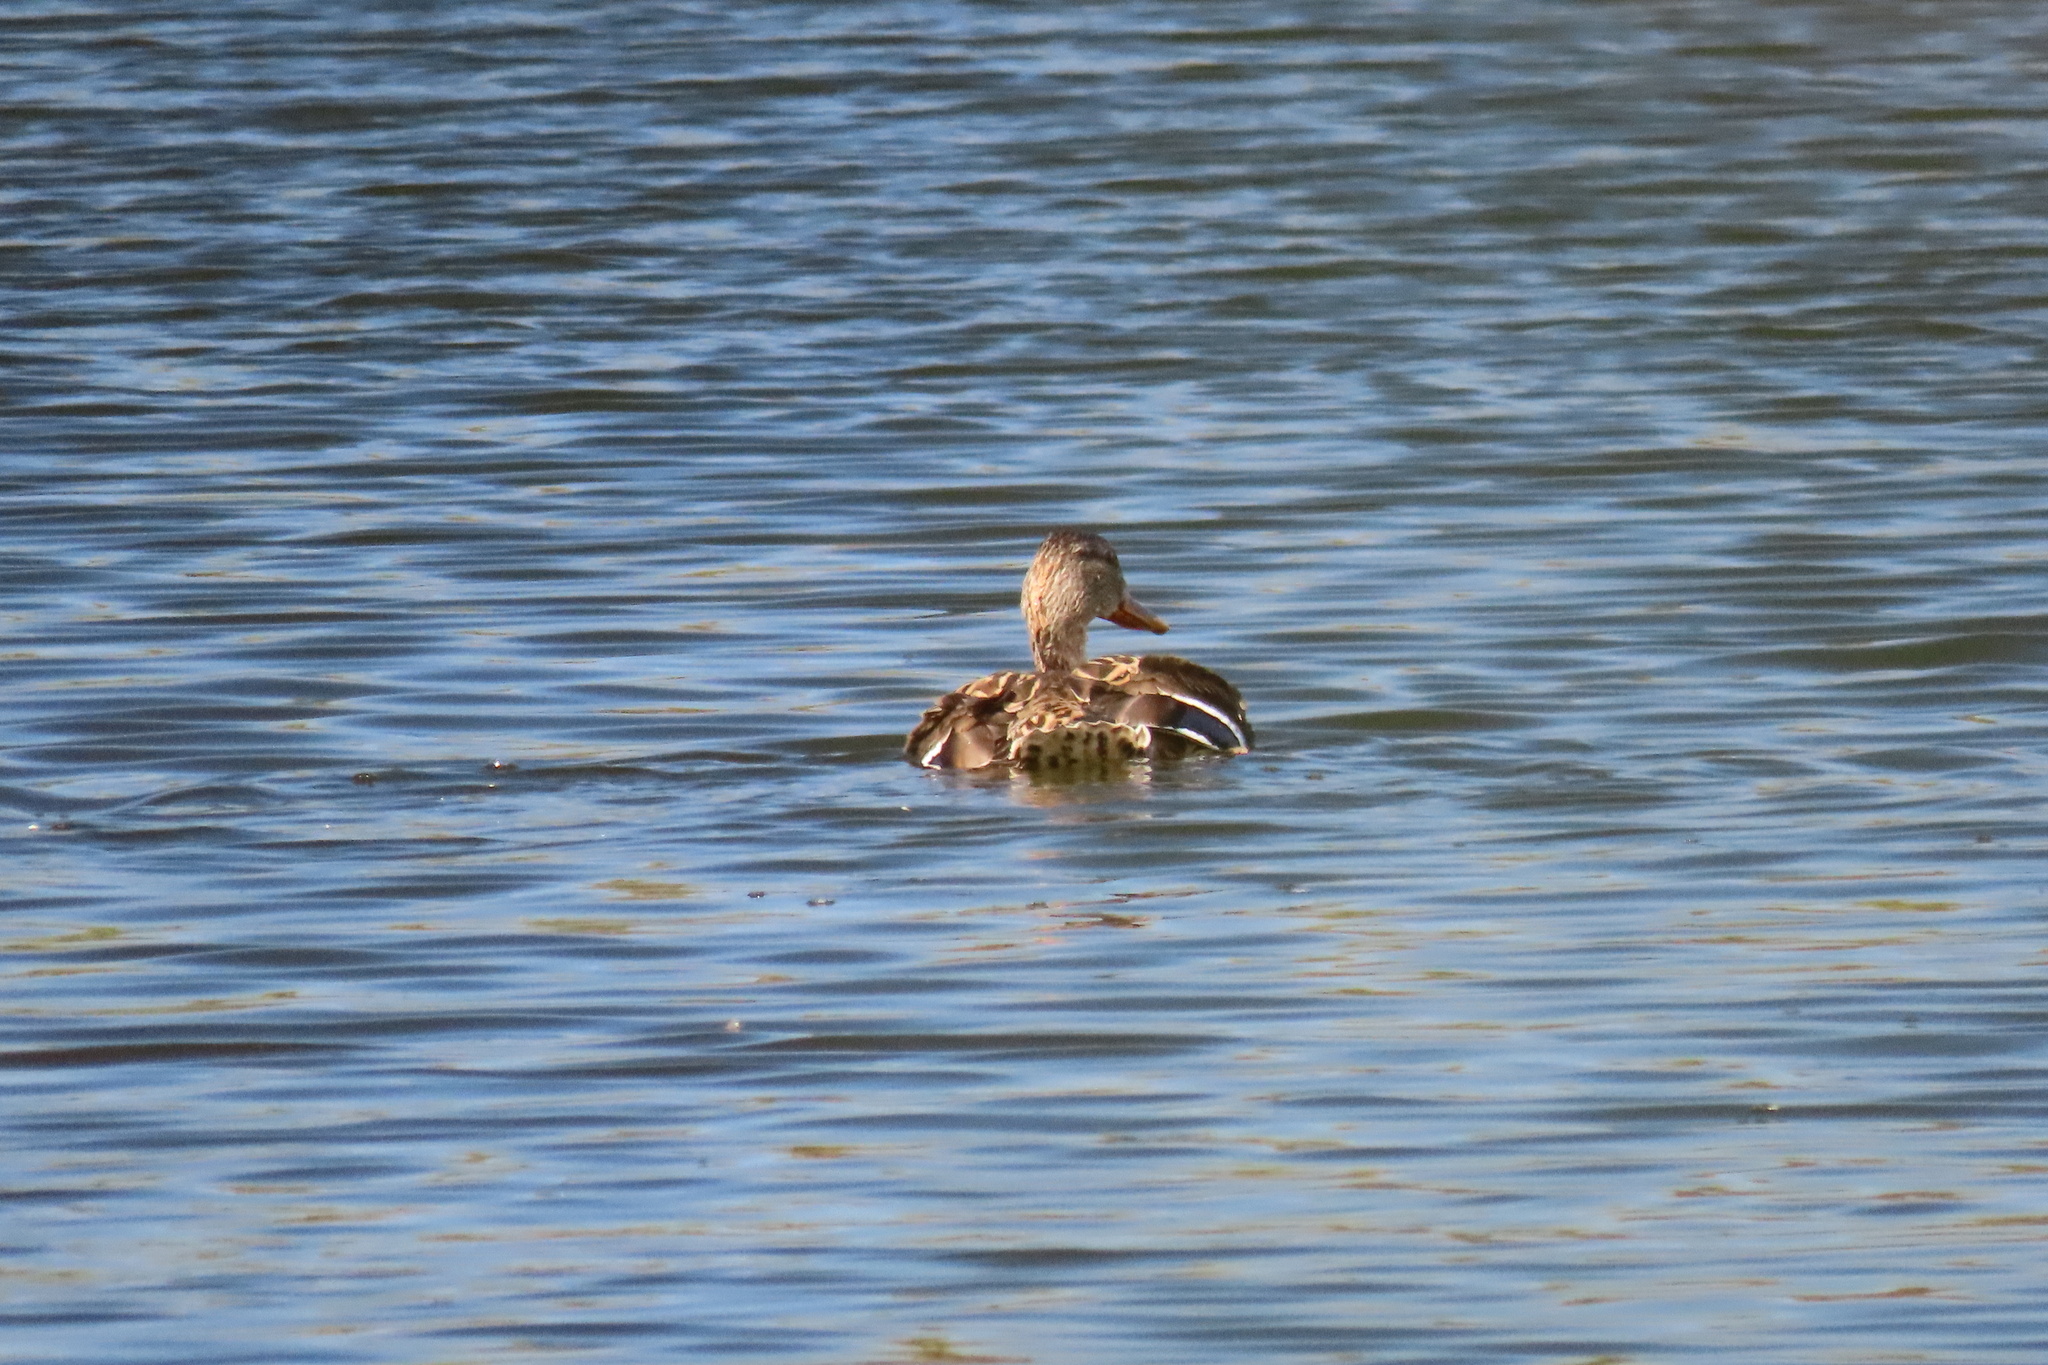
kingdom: Animalia
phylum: Chordata
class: Aves
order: Anseriformes
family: Anatidae
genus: Anas
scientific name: Anas platyrhynchos
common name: Mallard
